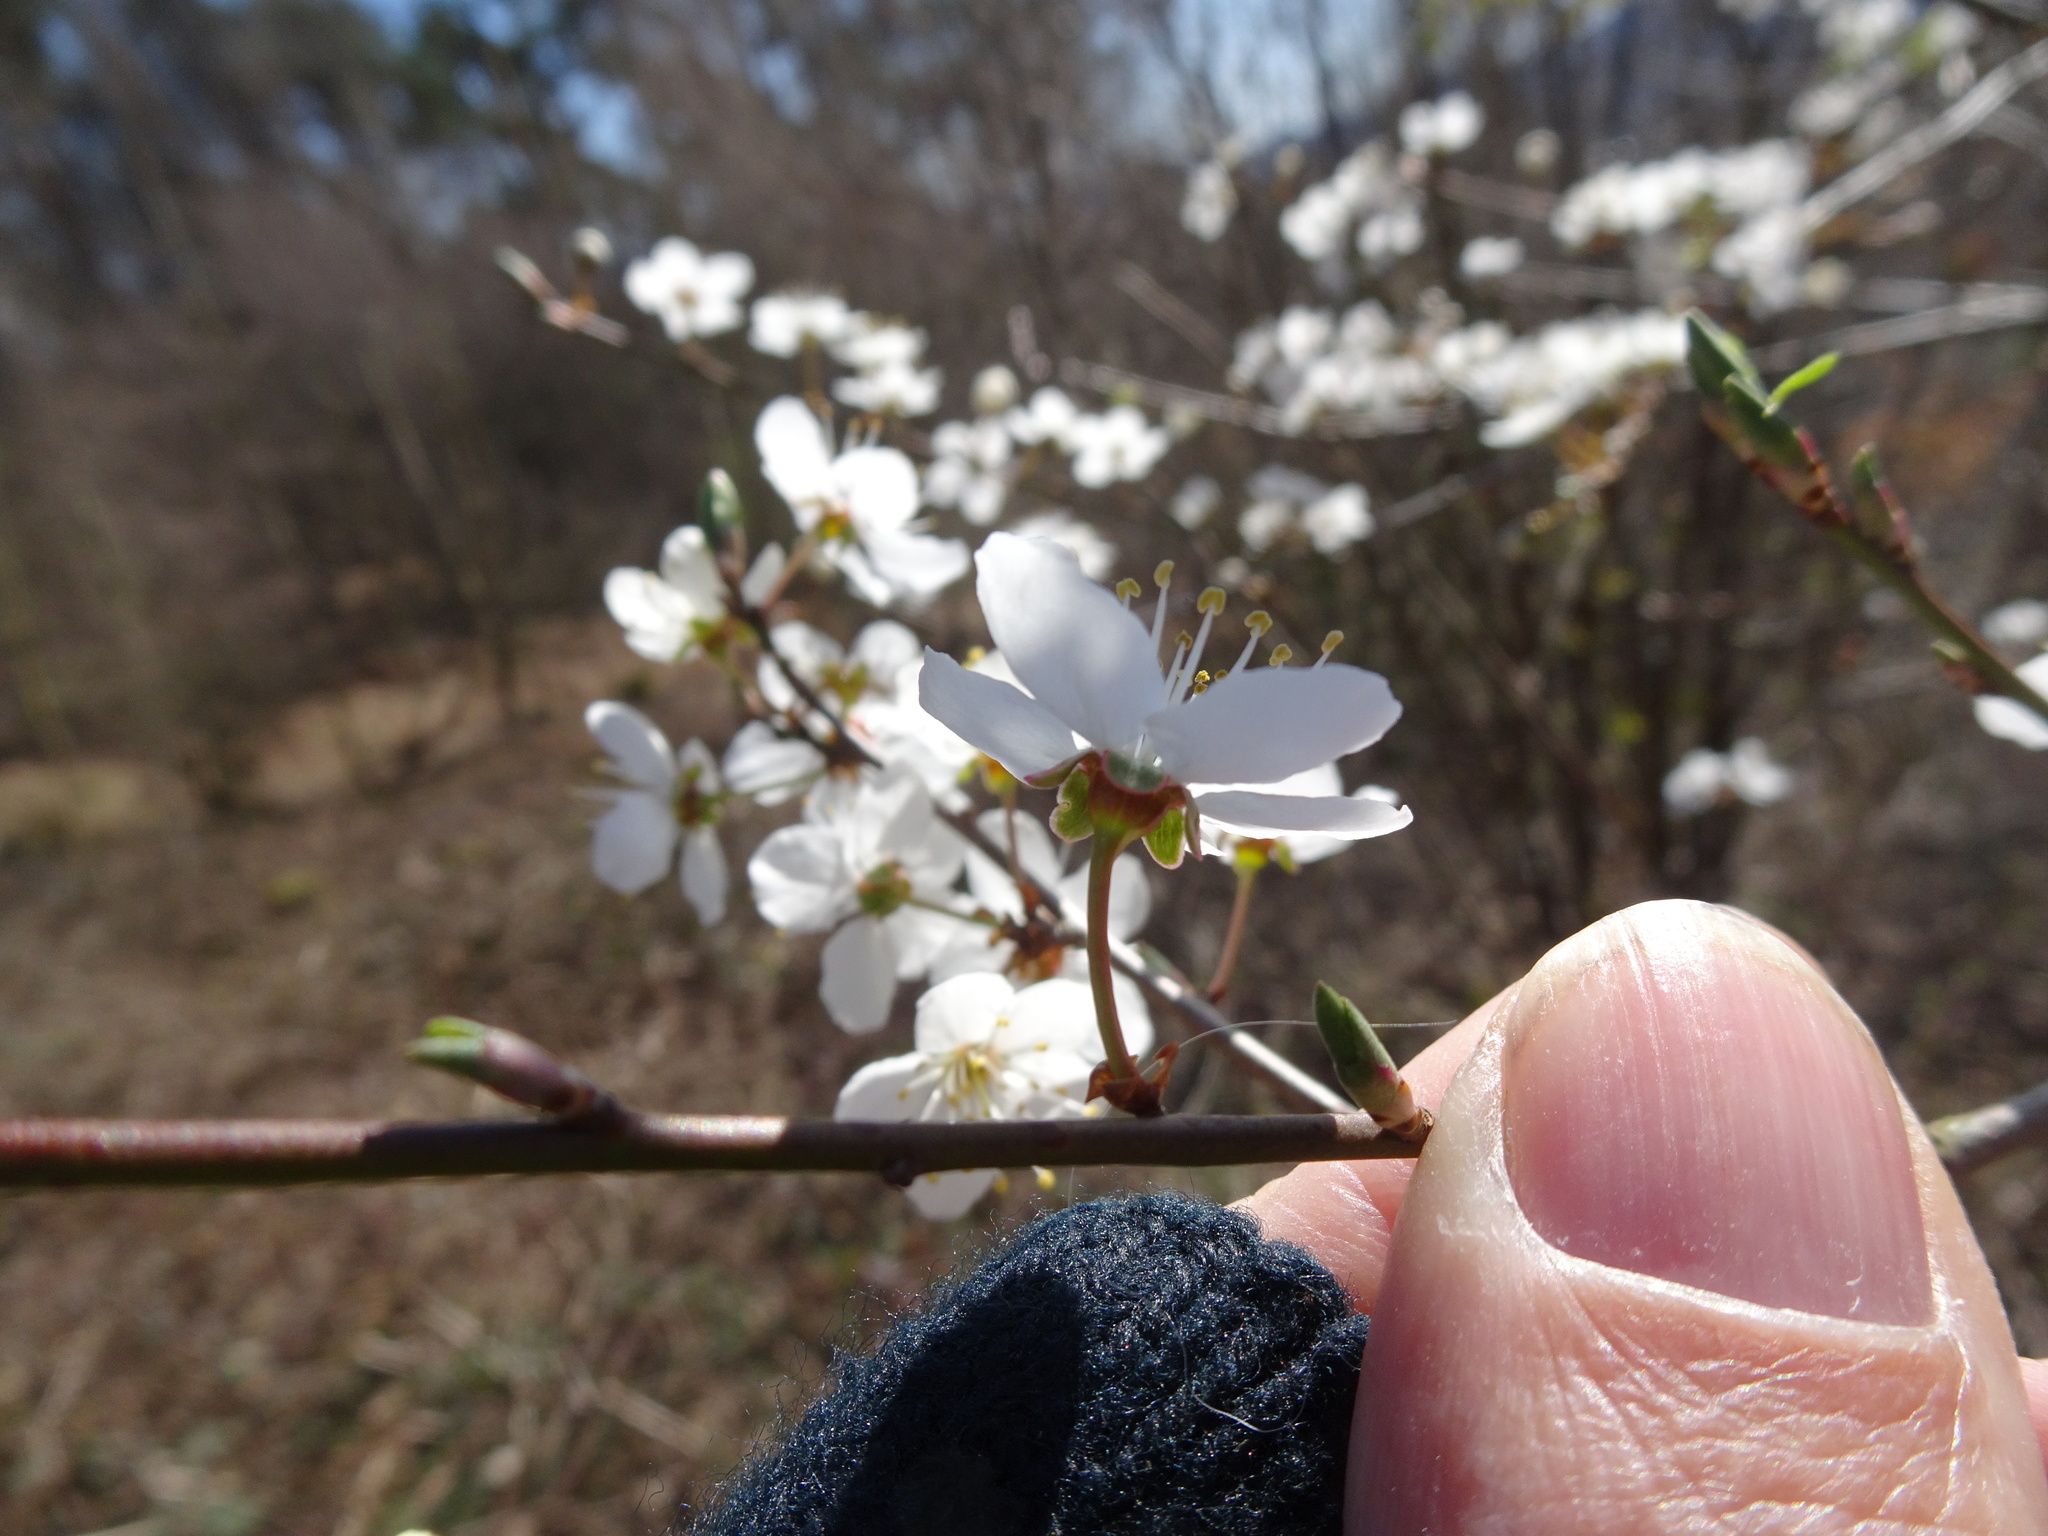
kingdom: Plantae
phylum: Tracheophyta
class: Magnoliopsida
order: Rosales
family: Rosaceae
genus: Prunus
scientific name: Prunus cerasifera
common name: Cherry plum
